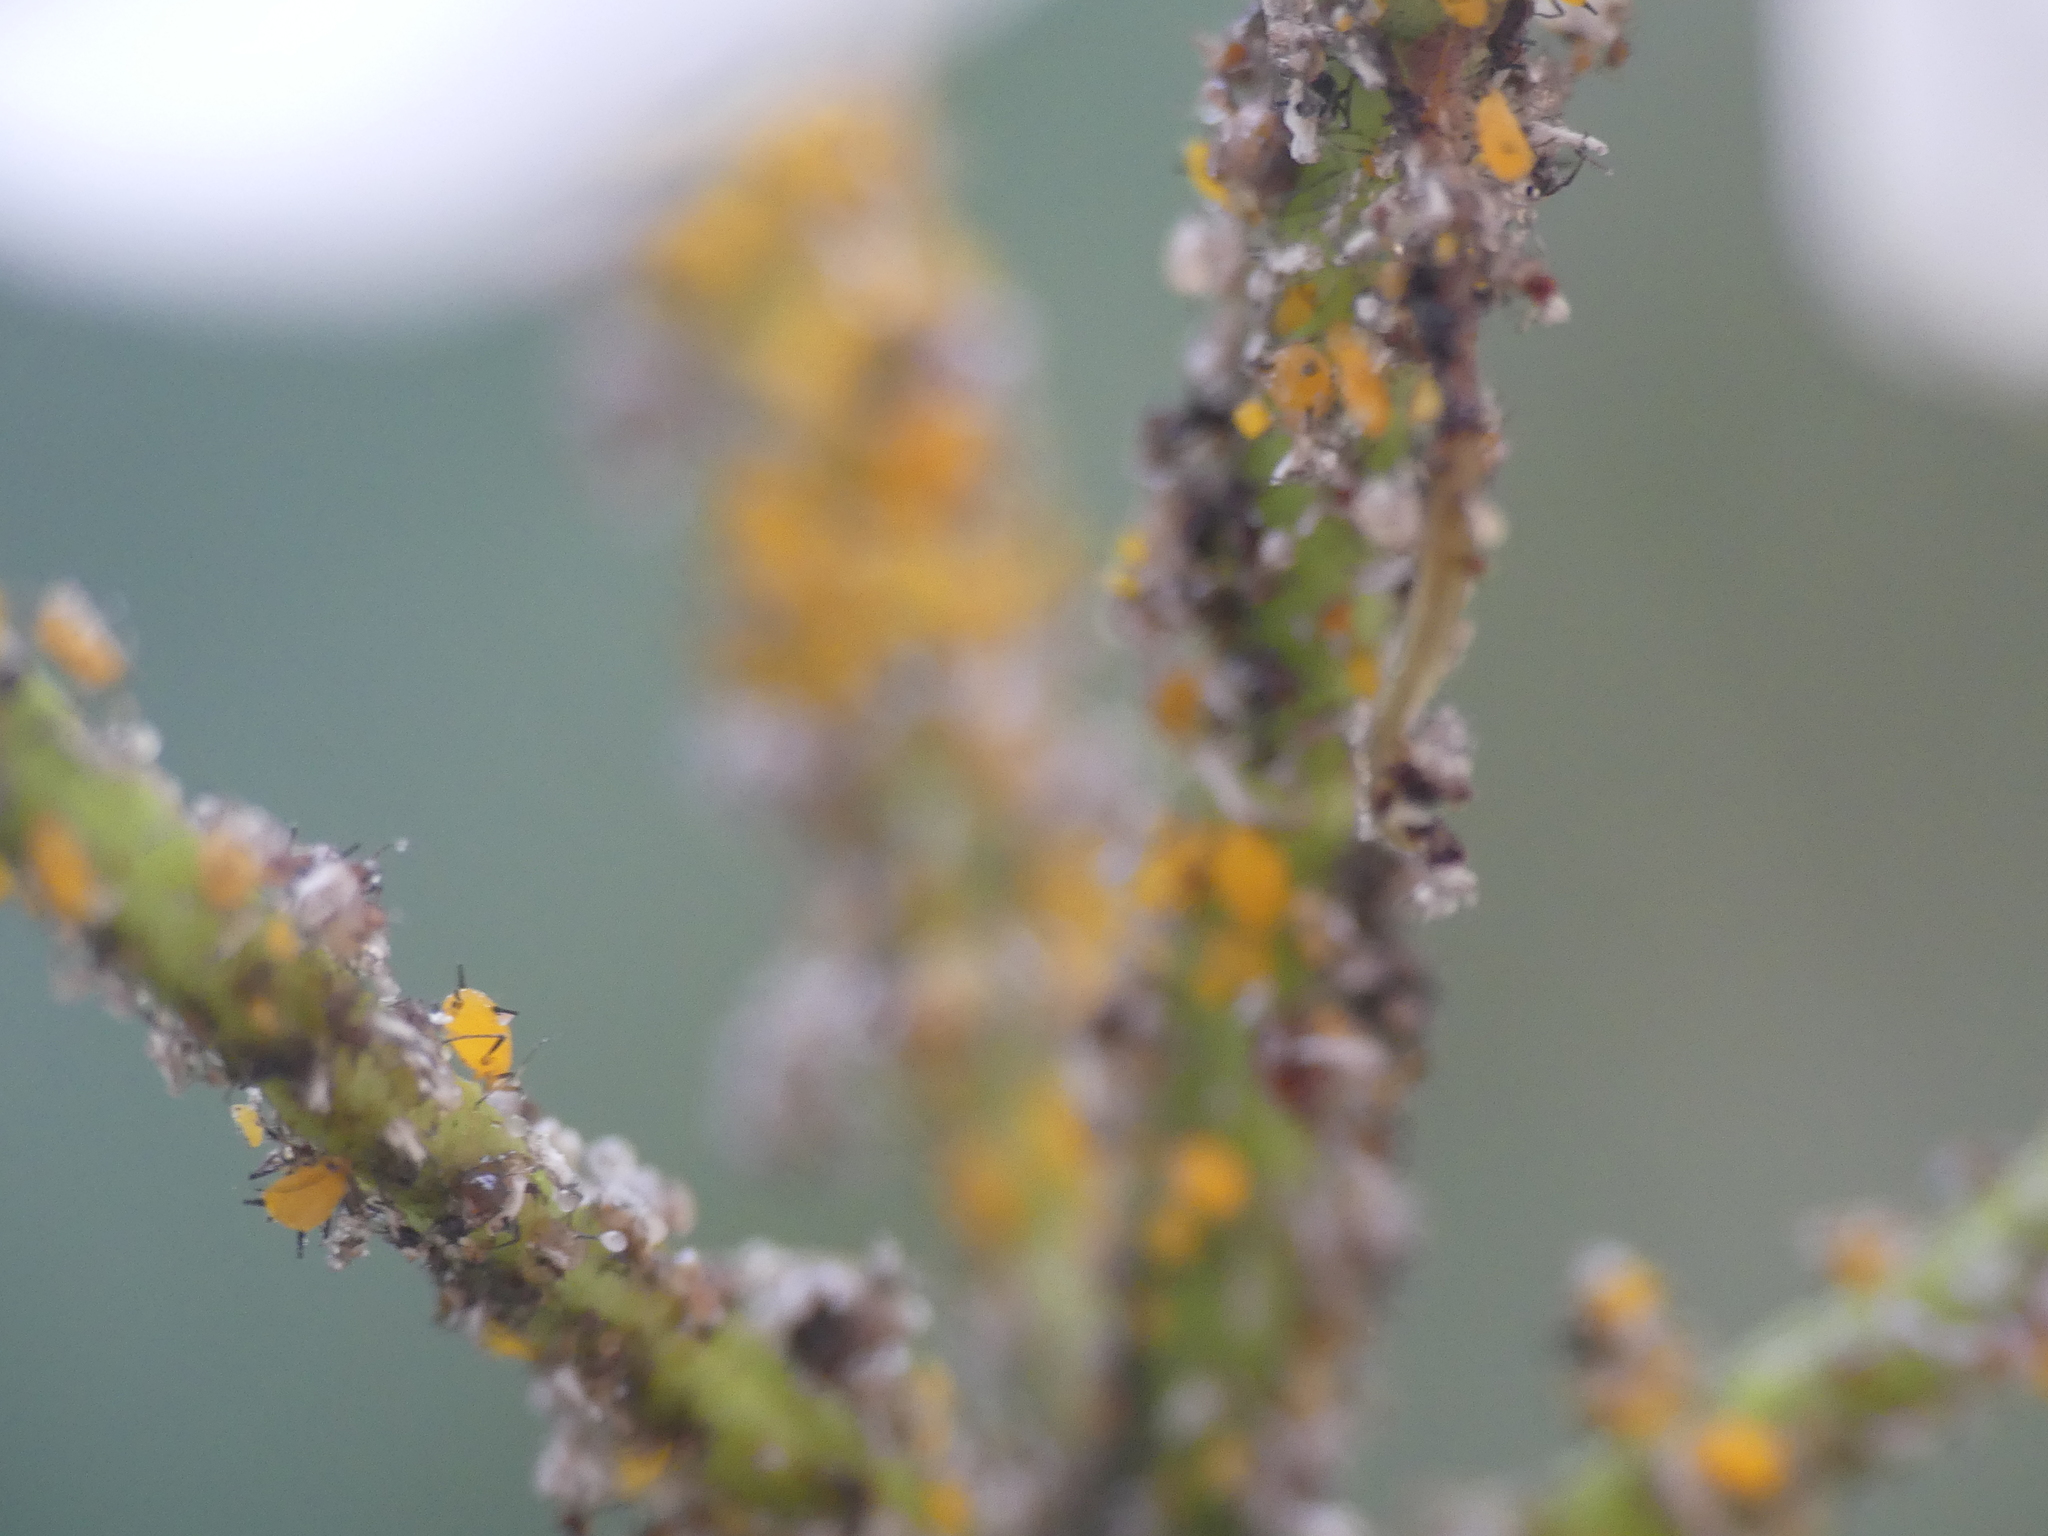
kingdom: Animalia
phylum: Arthropoda
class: Insecta
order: Hemiptera
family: Aphididae
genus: Aphis
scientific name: Aphis nerii
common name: Oleander aphid
